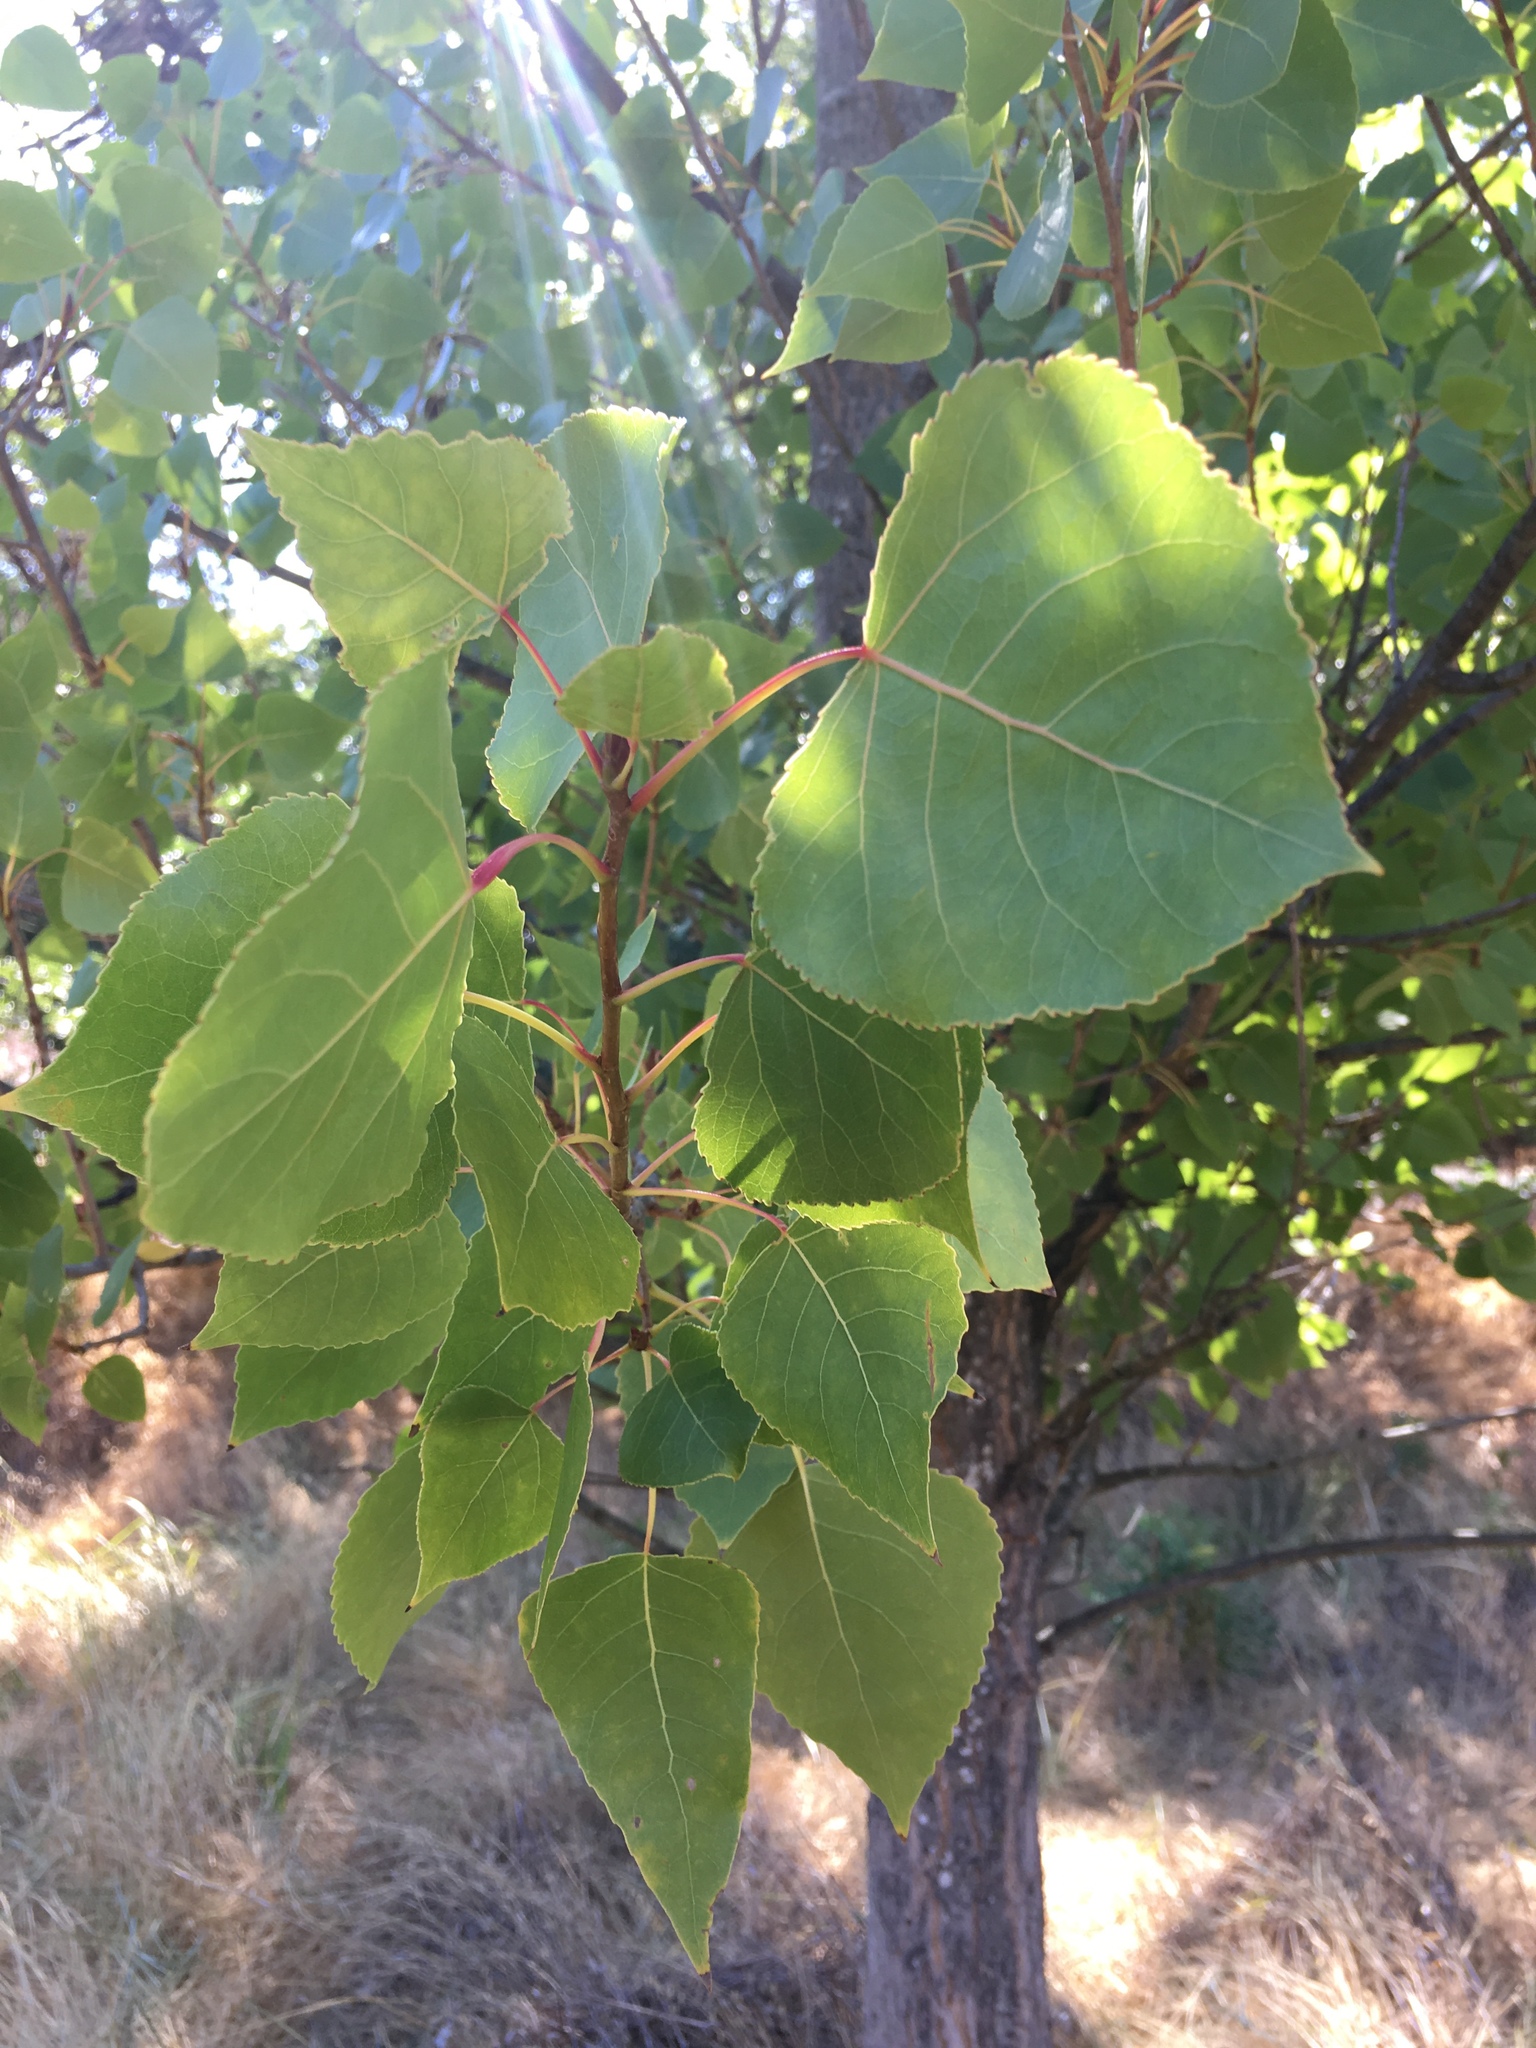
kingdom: Plantae
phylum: Tracheophyta
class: Magnoliopsida
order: Malpighiales
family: Salicaceae
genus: Populus
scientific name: Populus fremontii
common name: Fremont's cottonwood
